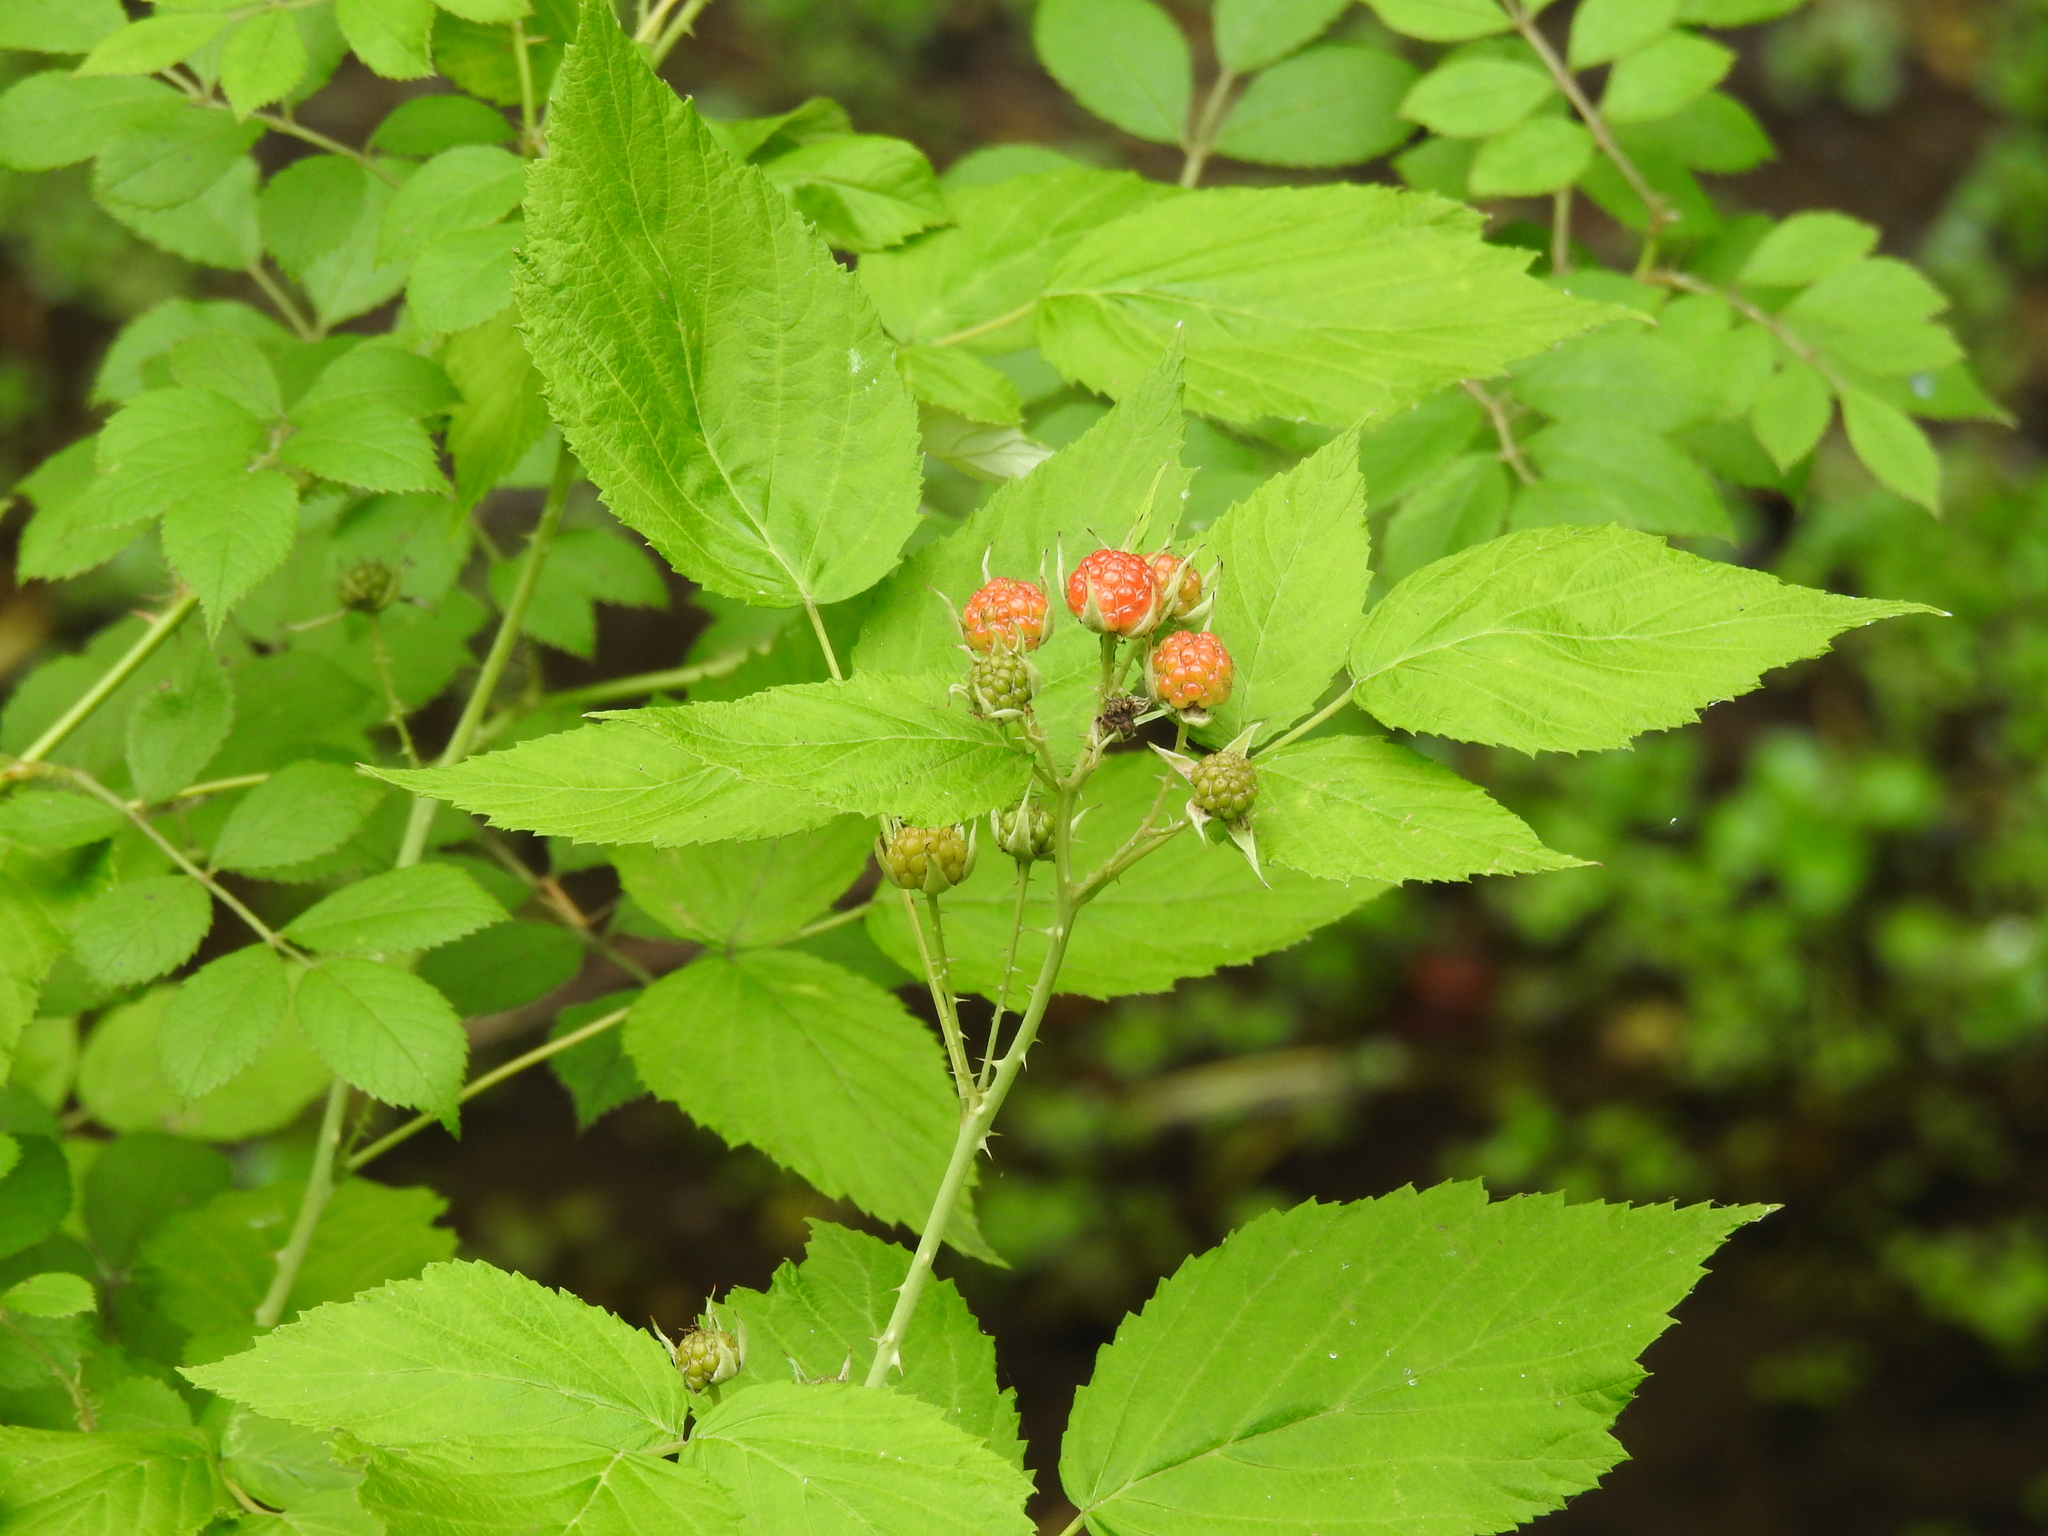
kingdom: Plantae
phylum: Tracheophyta
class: Magnoliopsida
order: Rosales
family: Rosaceae
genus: Rubus
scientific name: Rubus occidentalis
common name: Black raspberry
